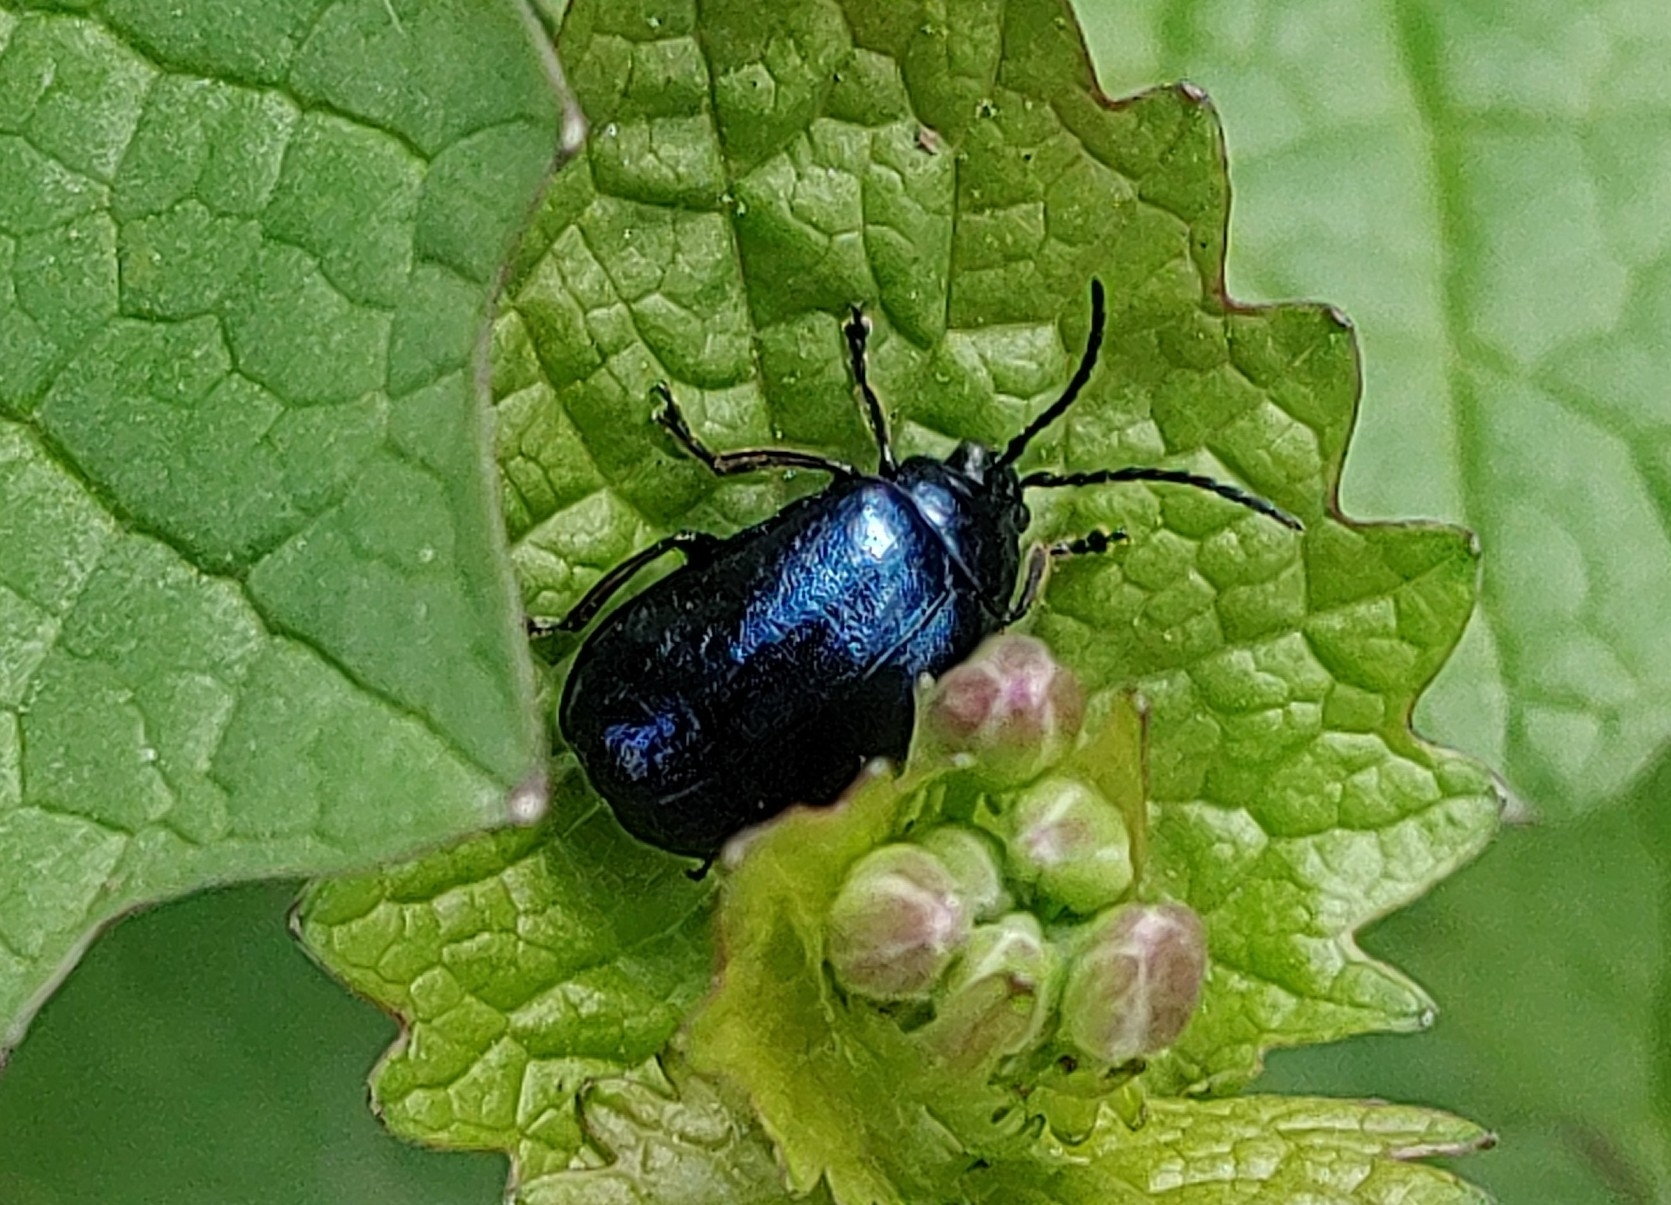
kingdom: Animalia
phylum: Arthropoda
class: Insecta
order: Coleoptera
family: Chrysomelidae
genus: Agelastica
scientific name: Agelastica alni
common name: Alder leaf beetle
